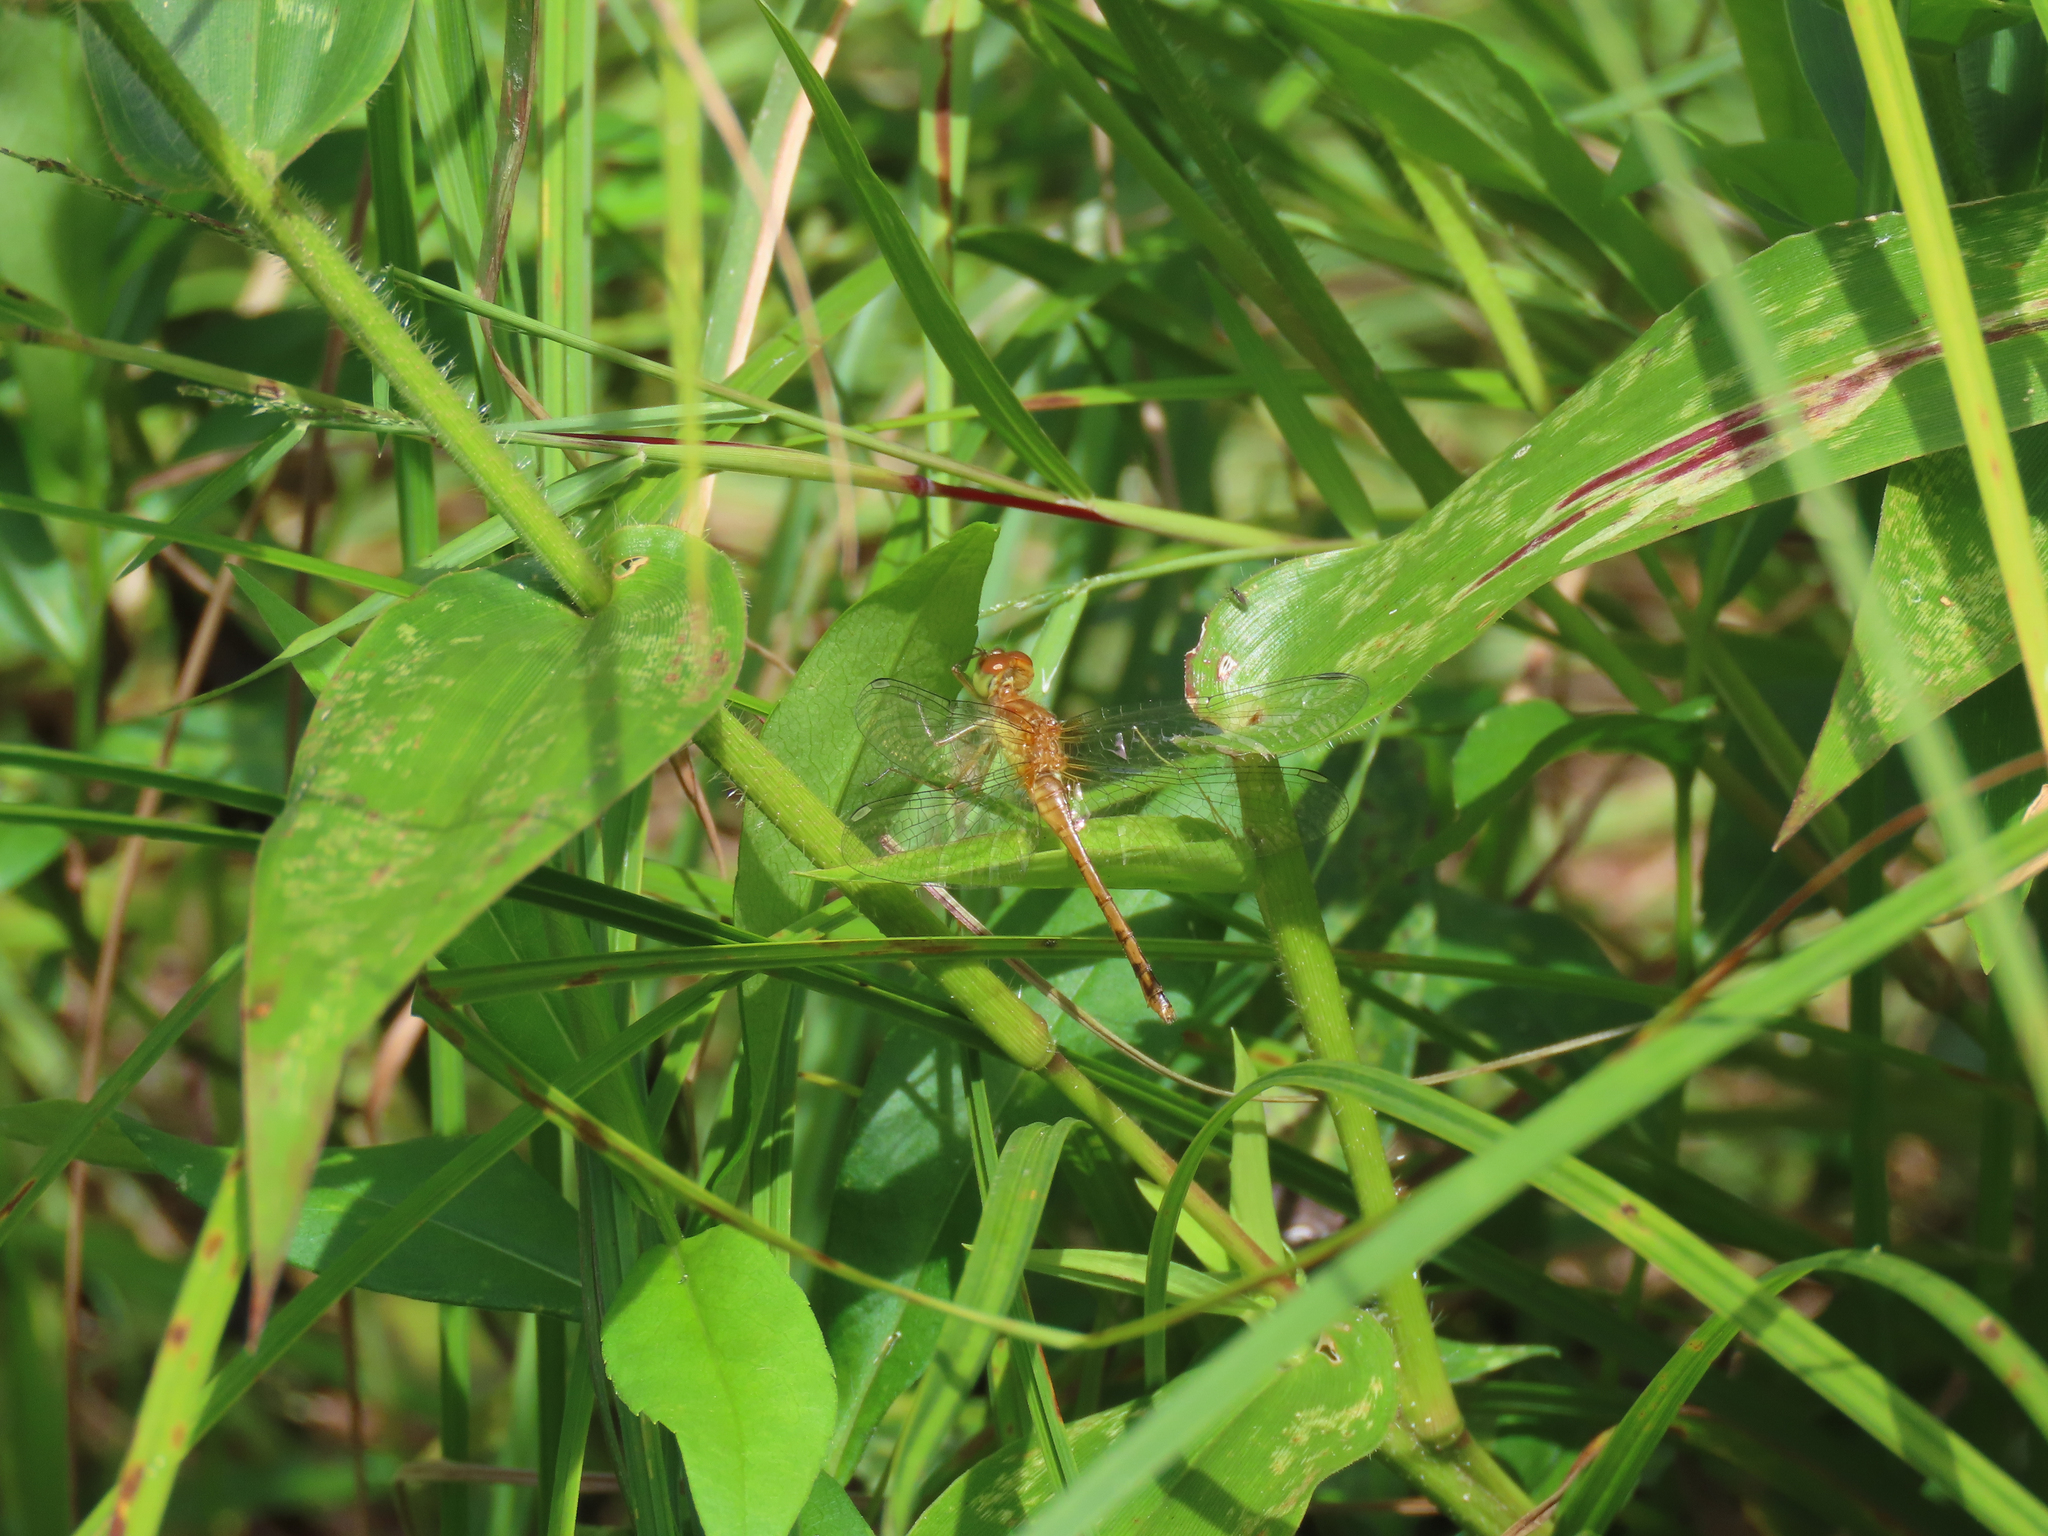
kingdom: Animalia
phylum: Arthropoda
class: Insecta
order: Odonata
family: Libellulidae
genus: Sympetrum
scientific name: Sympetrum vicinum
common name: Autumn meadowhawk
